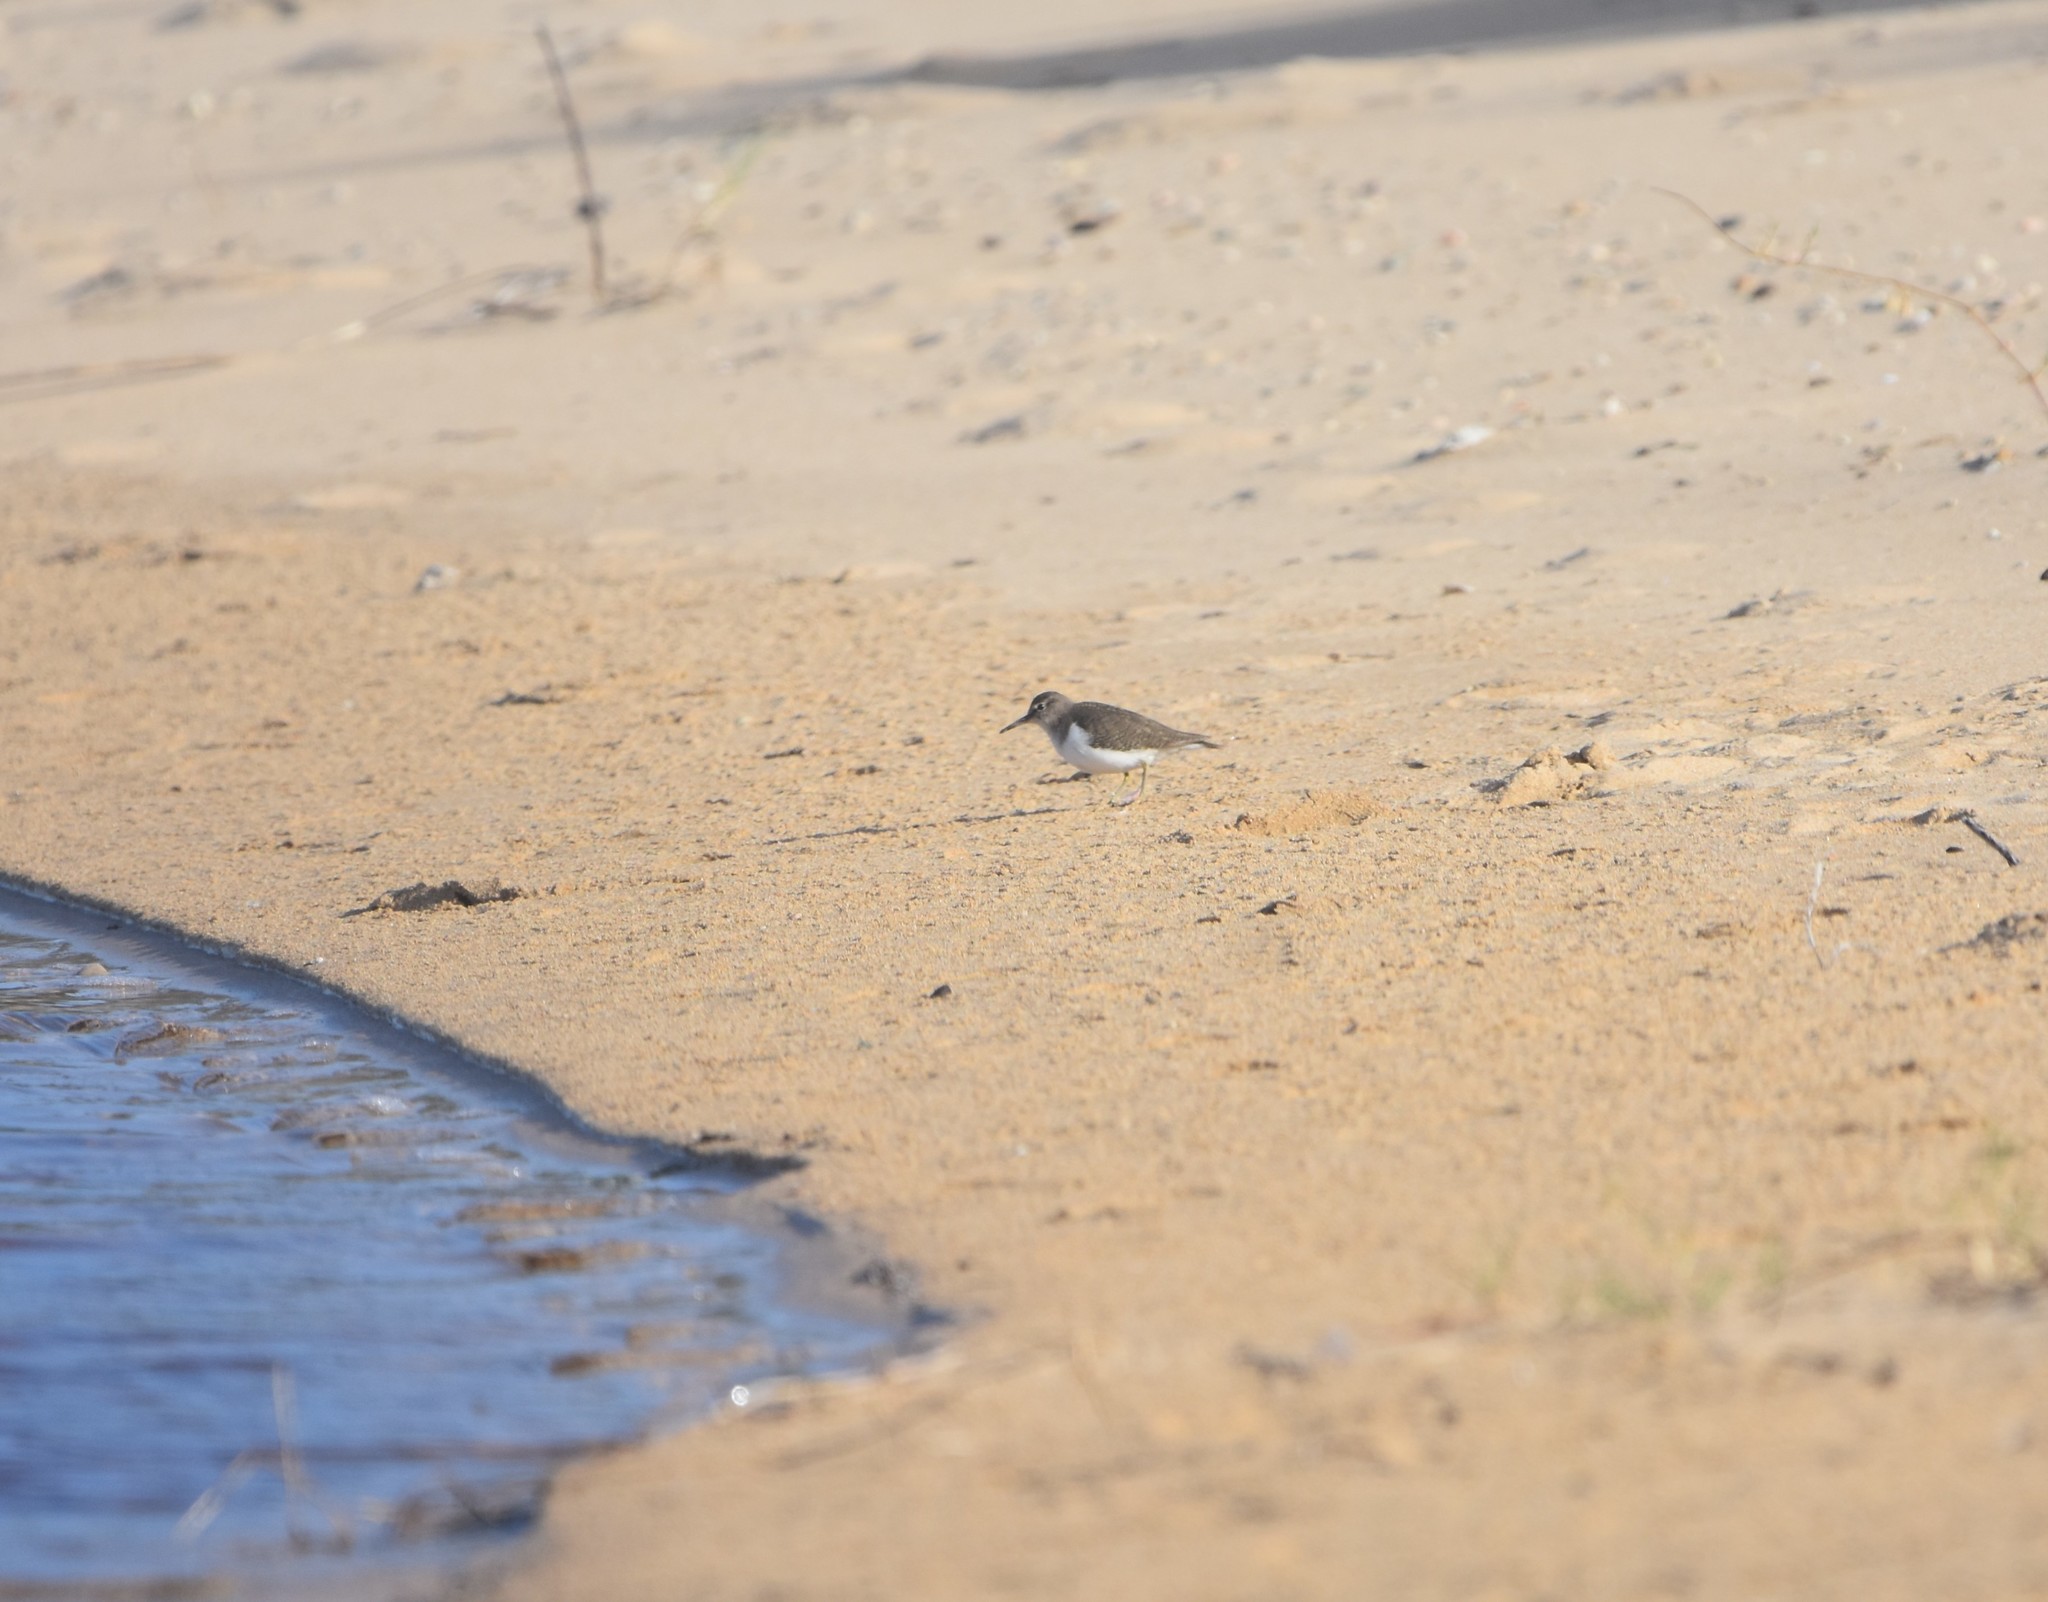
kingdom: Animalia
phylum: Chordata
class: Aves
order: Charadriiformes
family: Scolopacidae
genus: Actitis
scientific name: Actitis hypoleucos
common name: Common sandpiper
